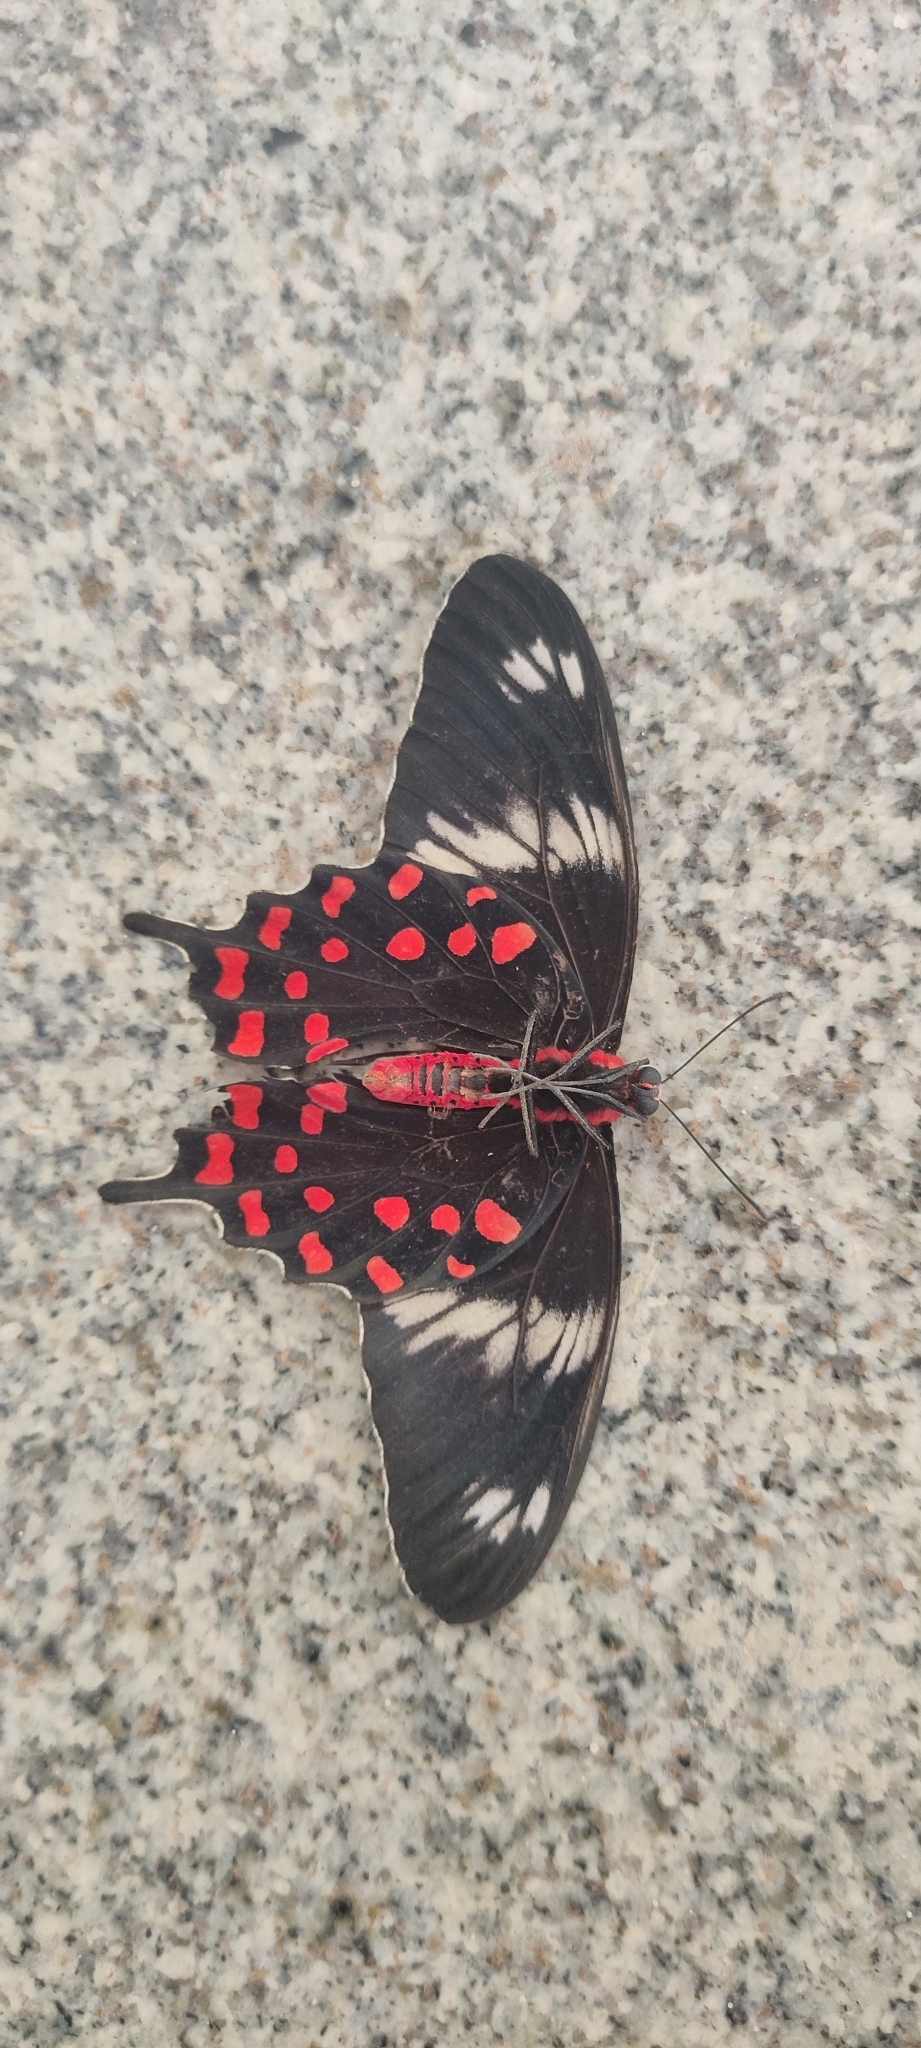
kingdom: Animalia
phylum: Arthropoda
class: Insecta
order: Lepidoptera
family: Papilionidae
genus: Pachliopta
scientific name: Pachliopta hector
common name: Crimson rose
